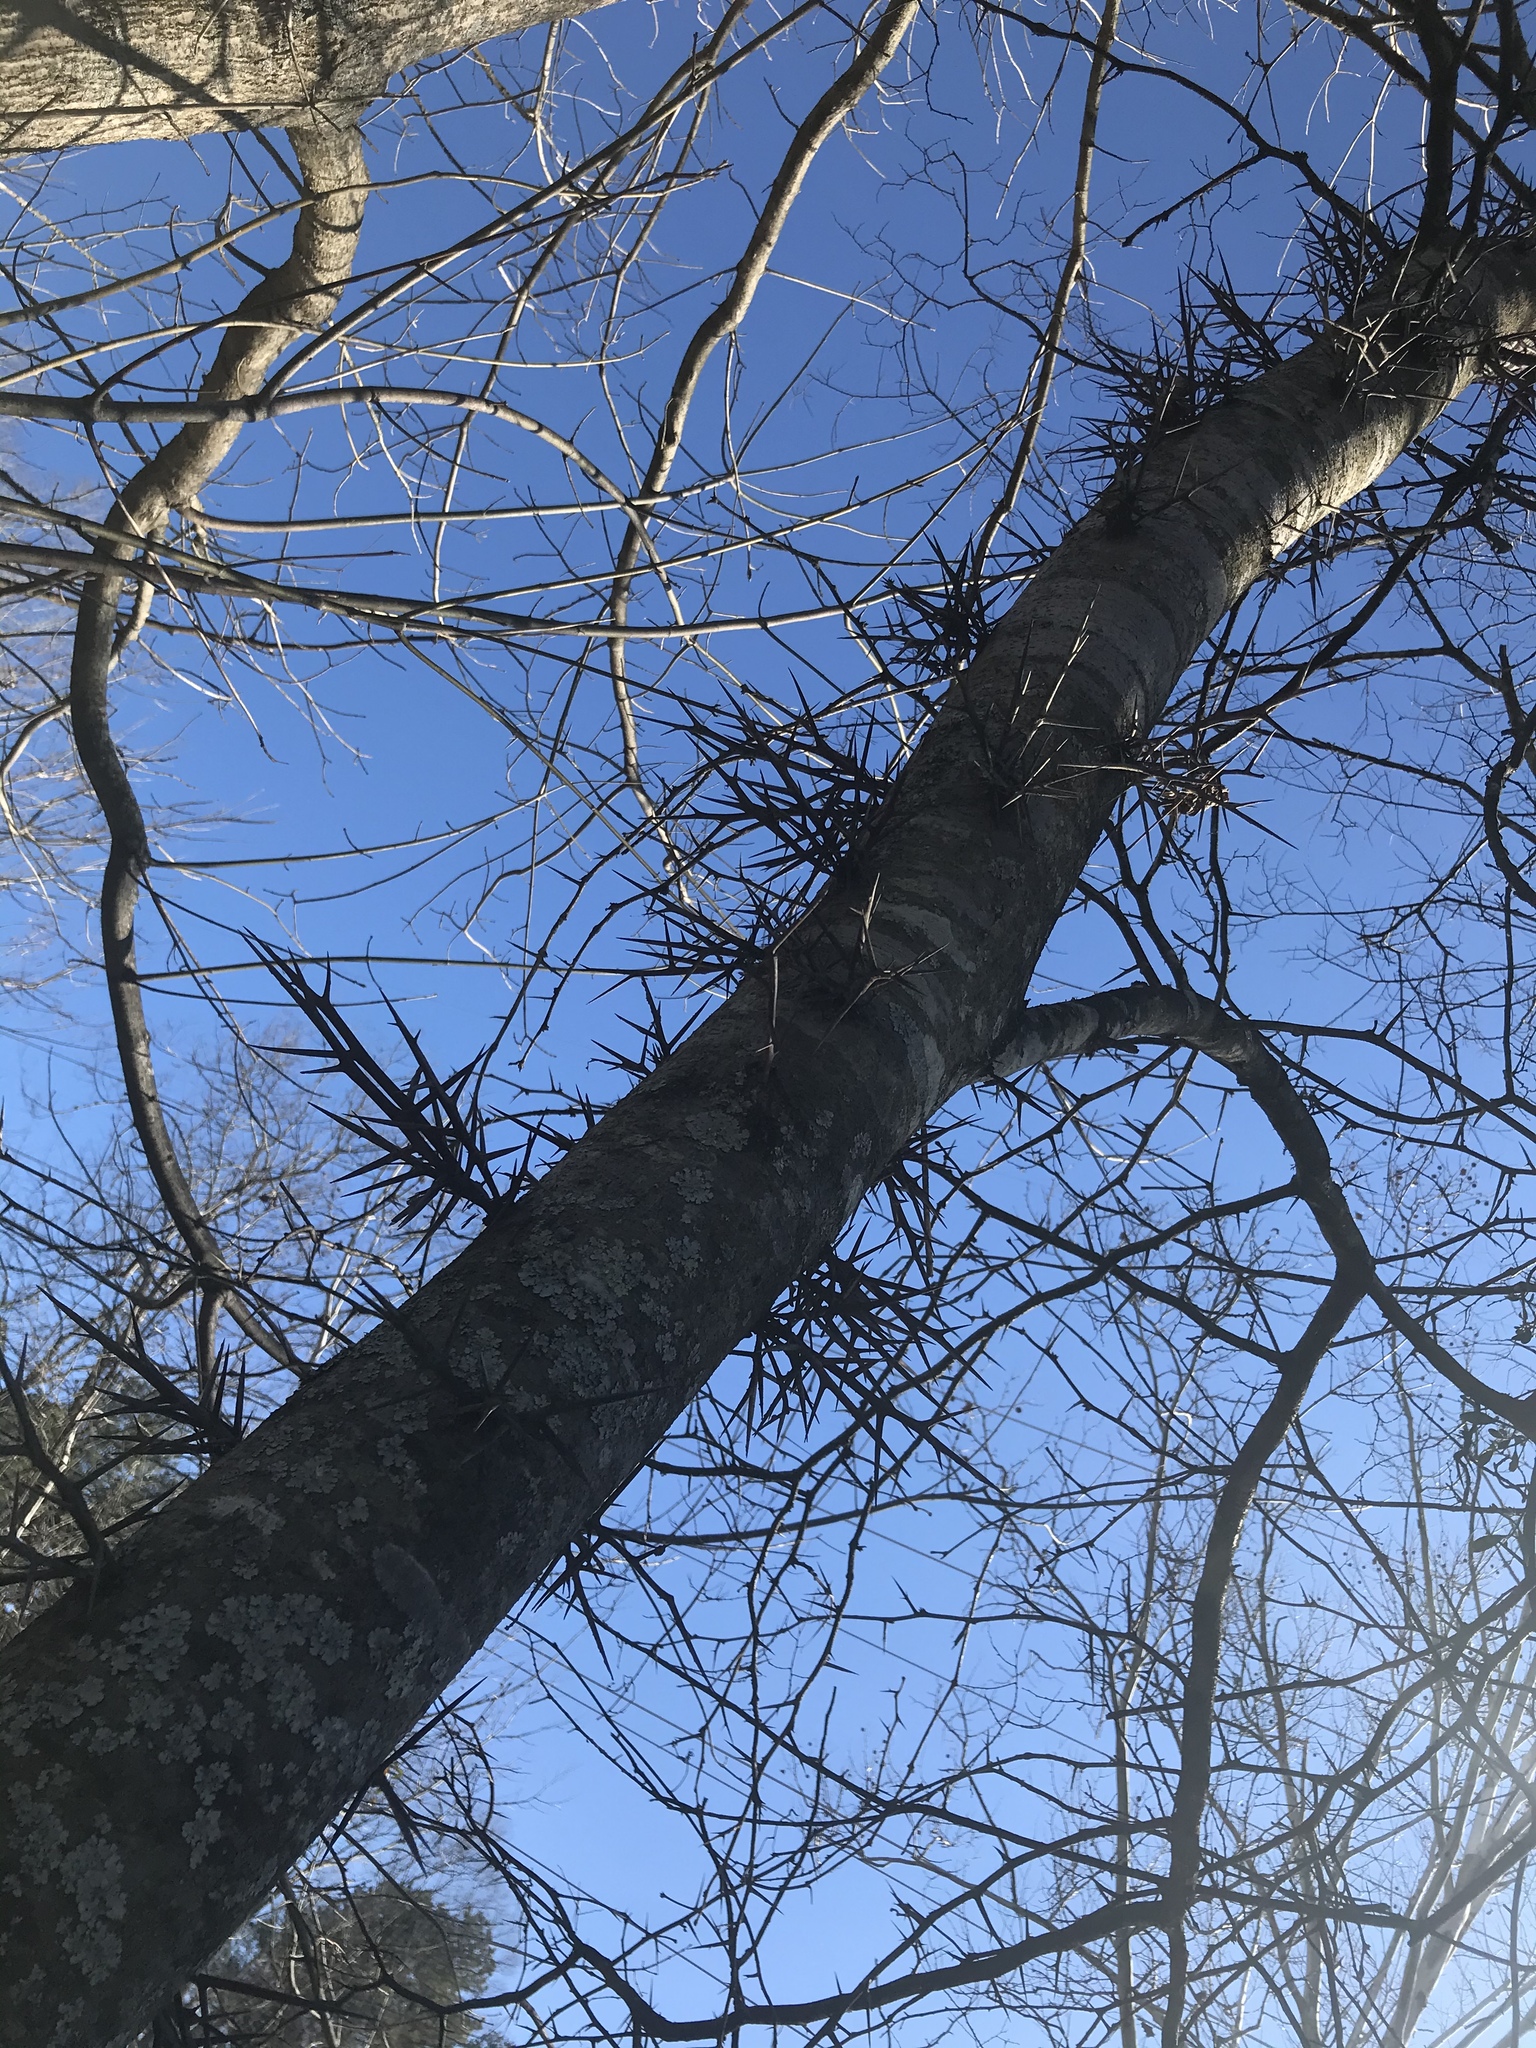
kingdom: Plantae
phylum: Tracheophyta
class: Magnoliopsida
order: Fabales
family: Fabaceae
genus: Gleditsia
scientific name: Gleditsia triacanthos
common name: Common honeylocust
